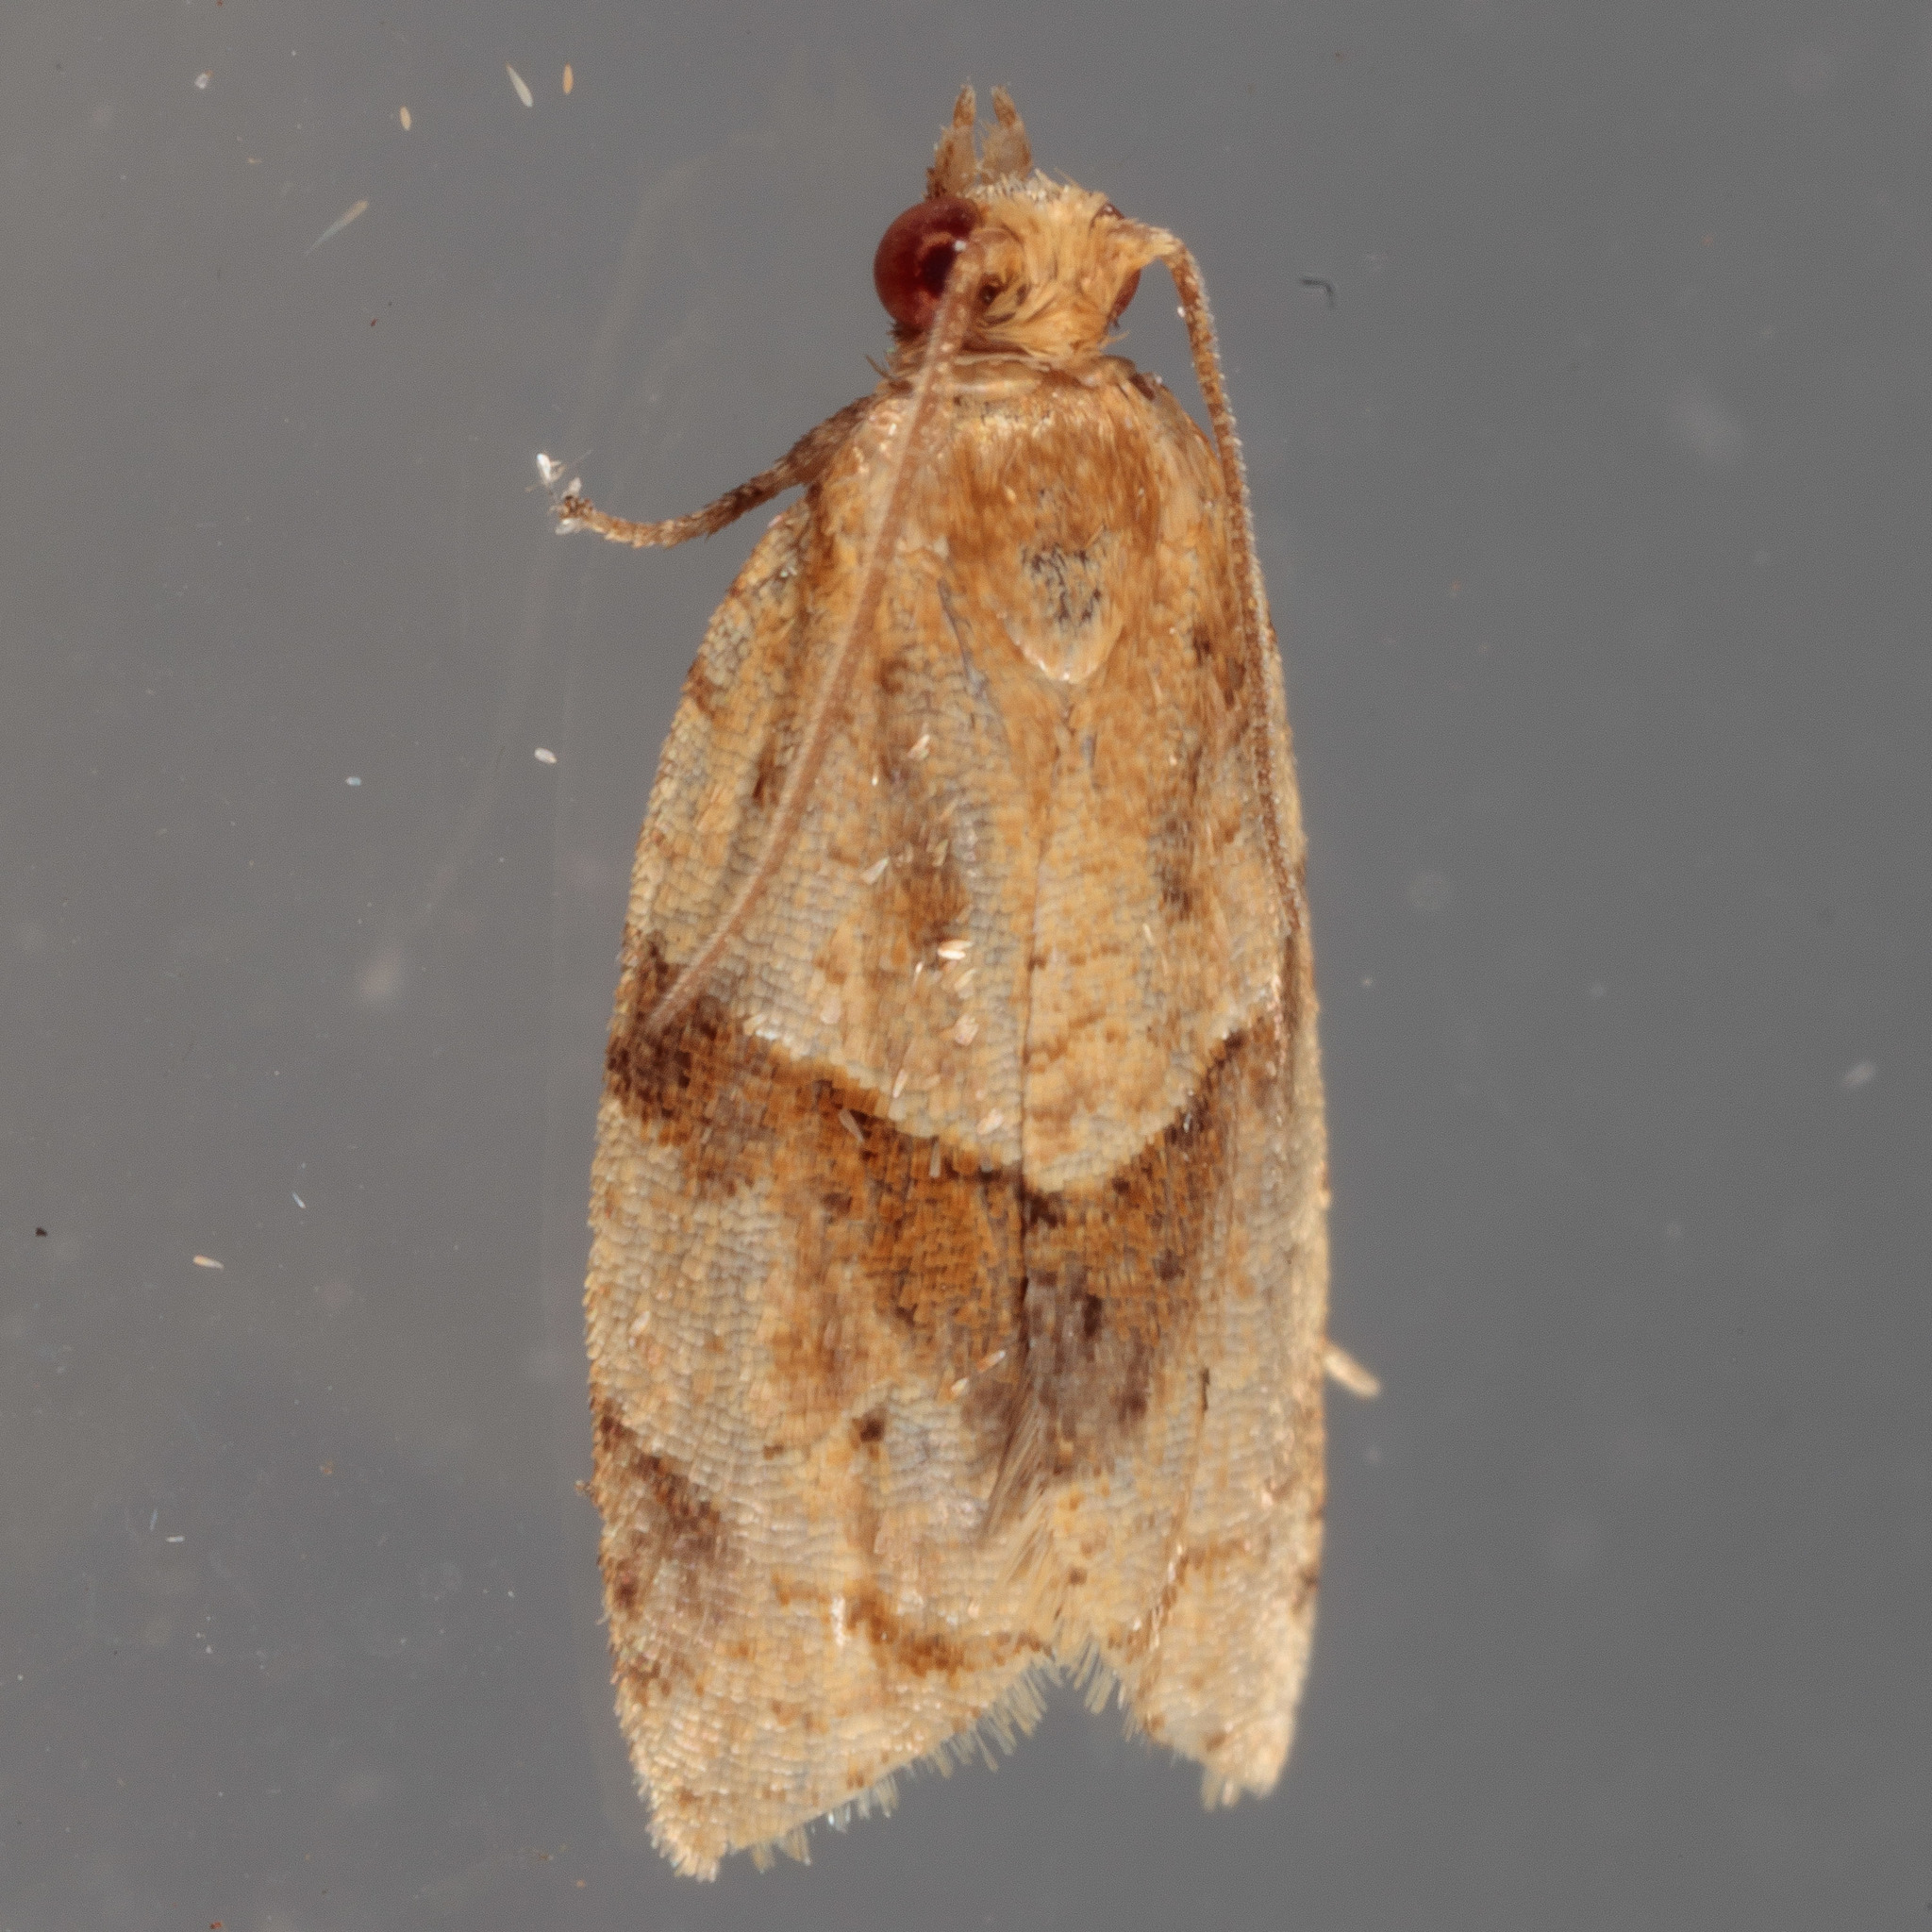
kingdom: Animalia
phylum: Arthropoda
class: Insecta
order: Lepidoptera
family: Tortricidae
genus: Clepsis
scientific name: Clepsis peritana
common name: Garden tortrix
